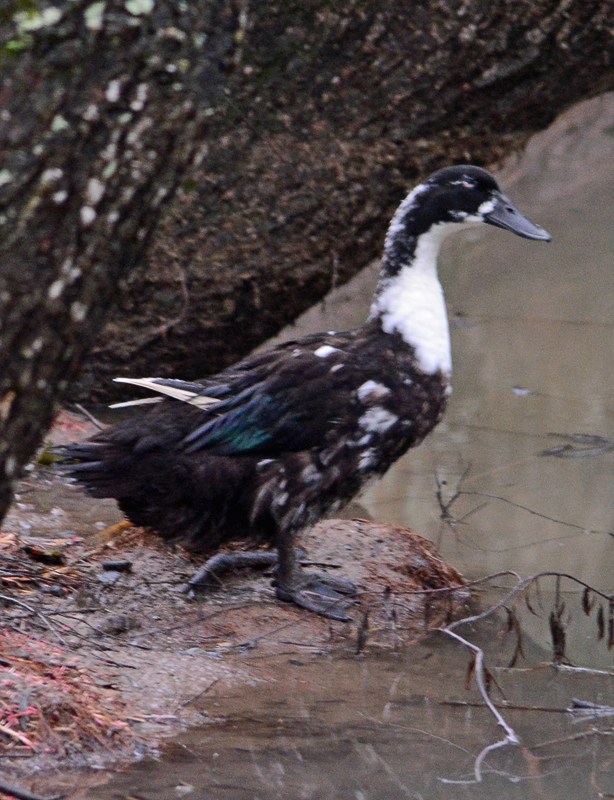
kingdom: Animalia
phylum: Chordata
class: Aves
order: Anseriformes
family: Anatidae
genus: Anas
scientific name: Anas platyrhynchos
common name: Mallard
